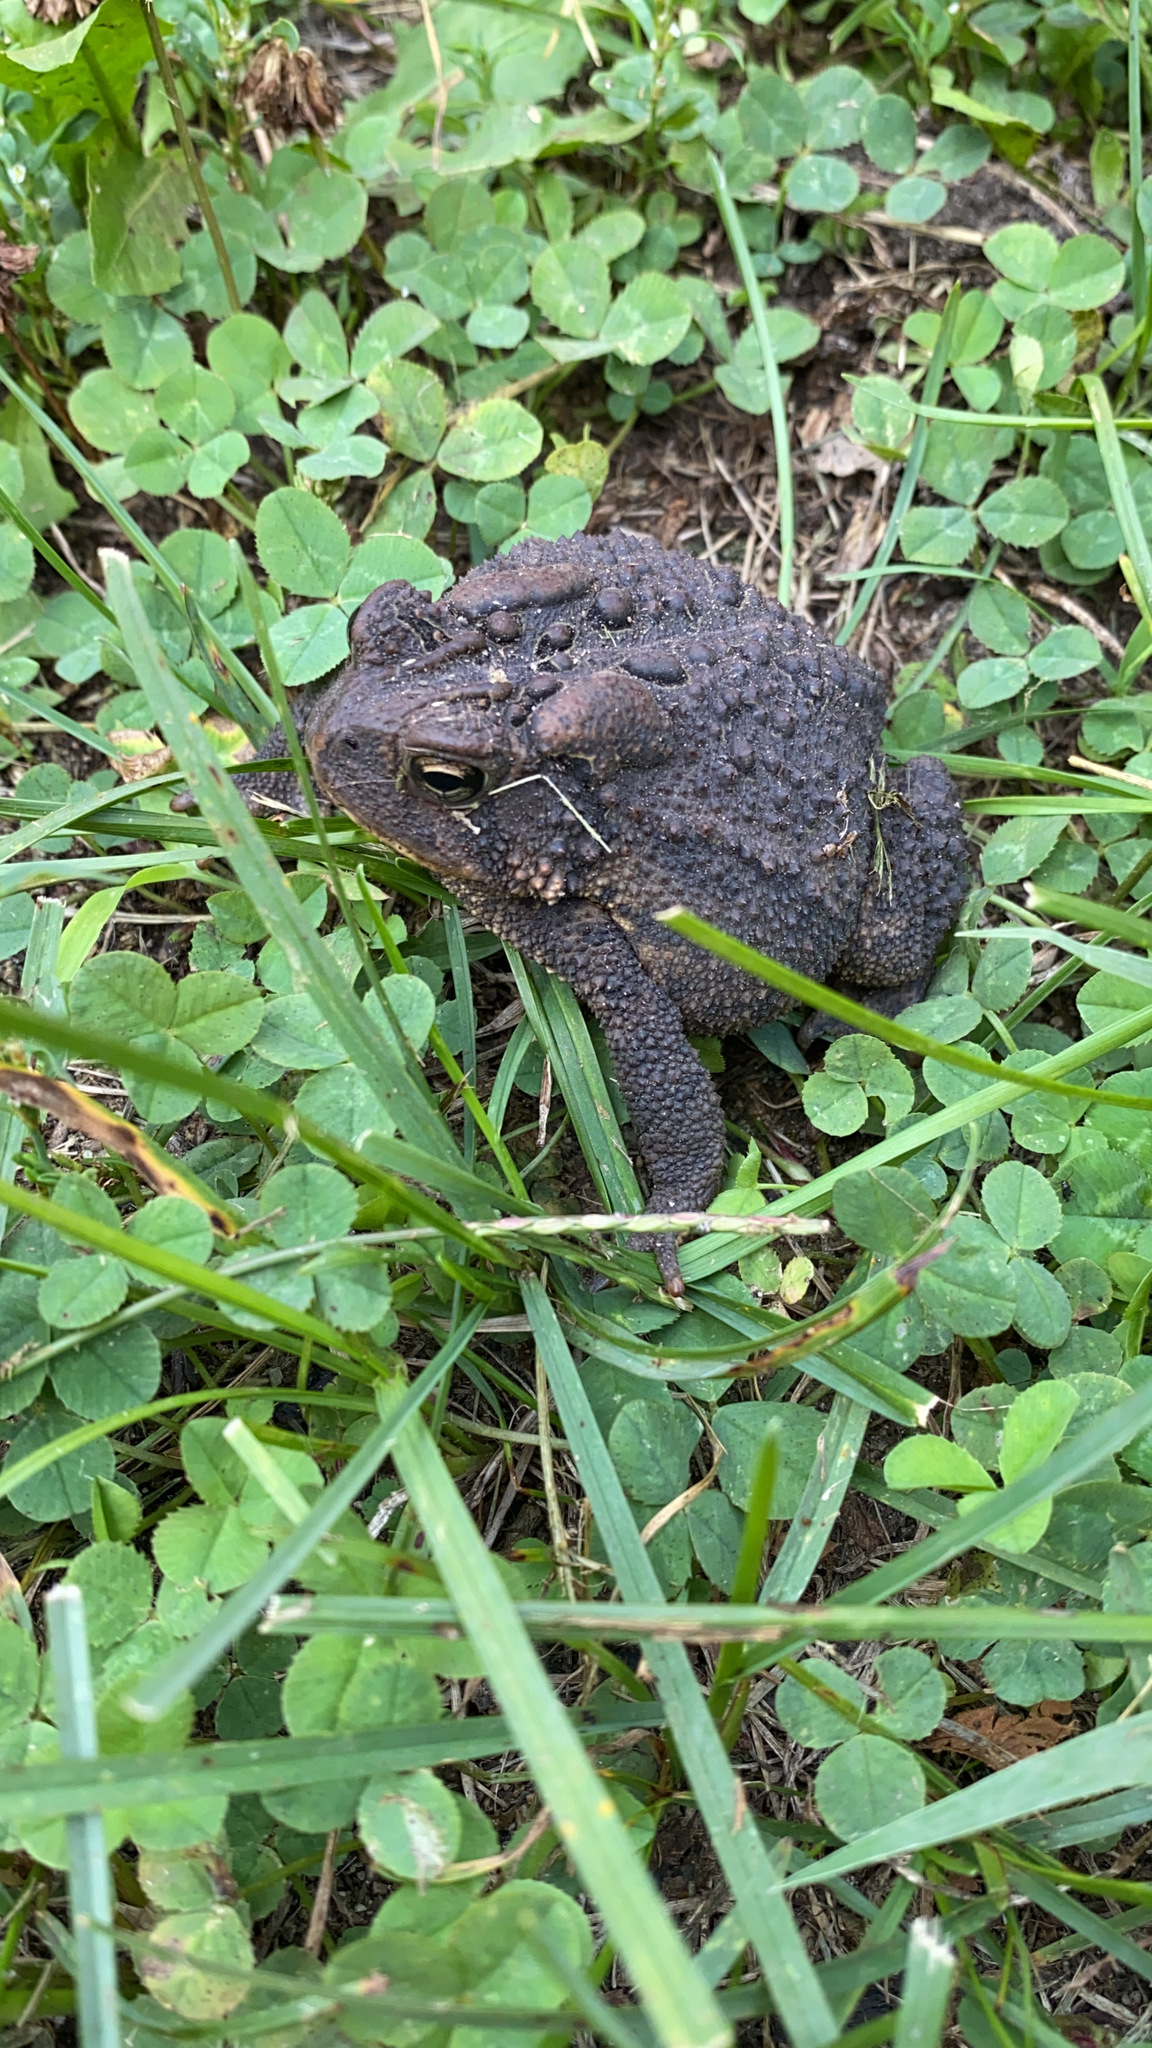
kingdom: Animalia
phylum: Chordata
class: Amphibia
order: Anura
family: Bufonidae
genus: Anaxyrus
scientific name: Anaxyrus americanus
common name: American toad
